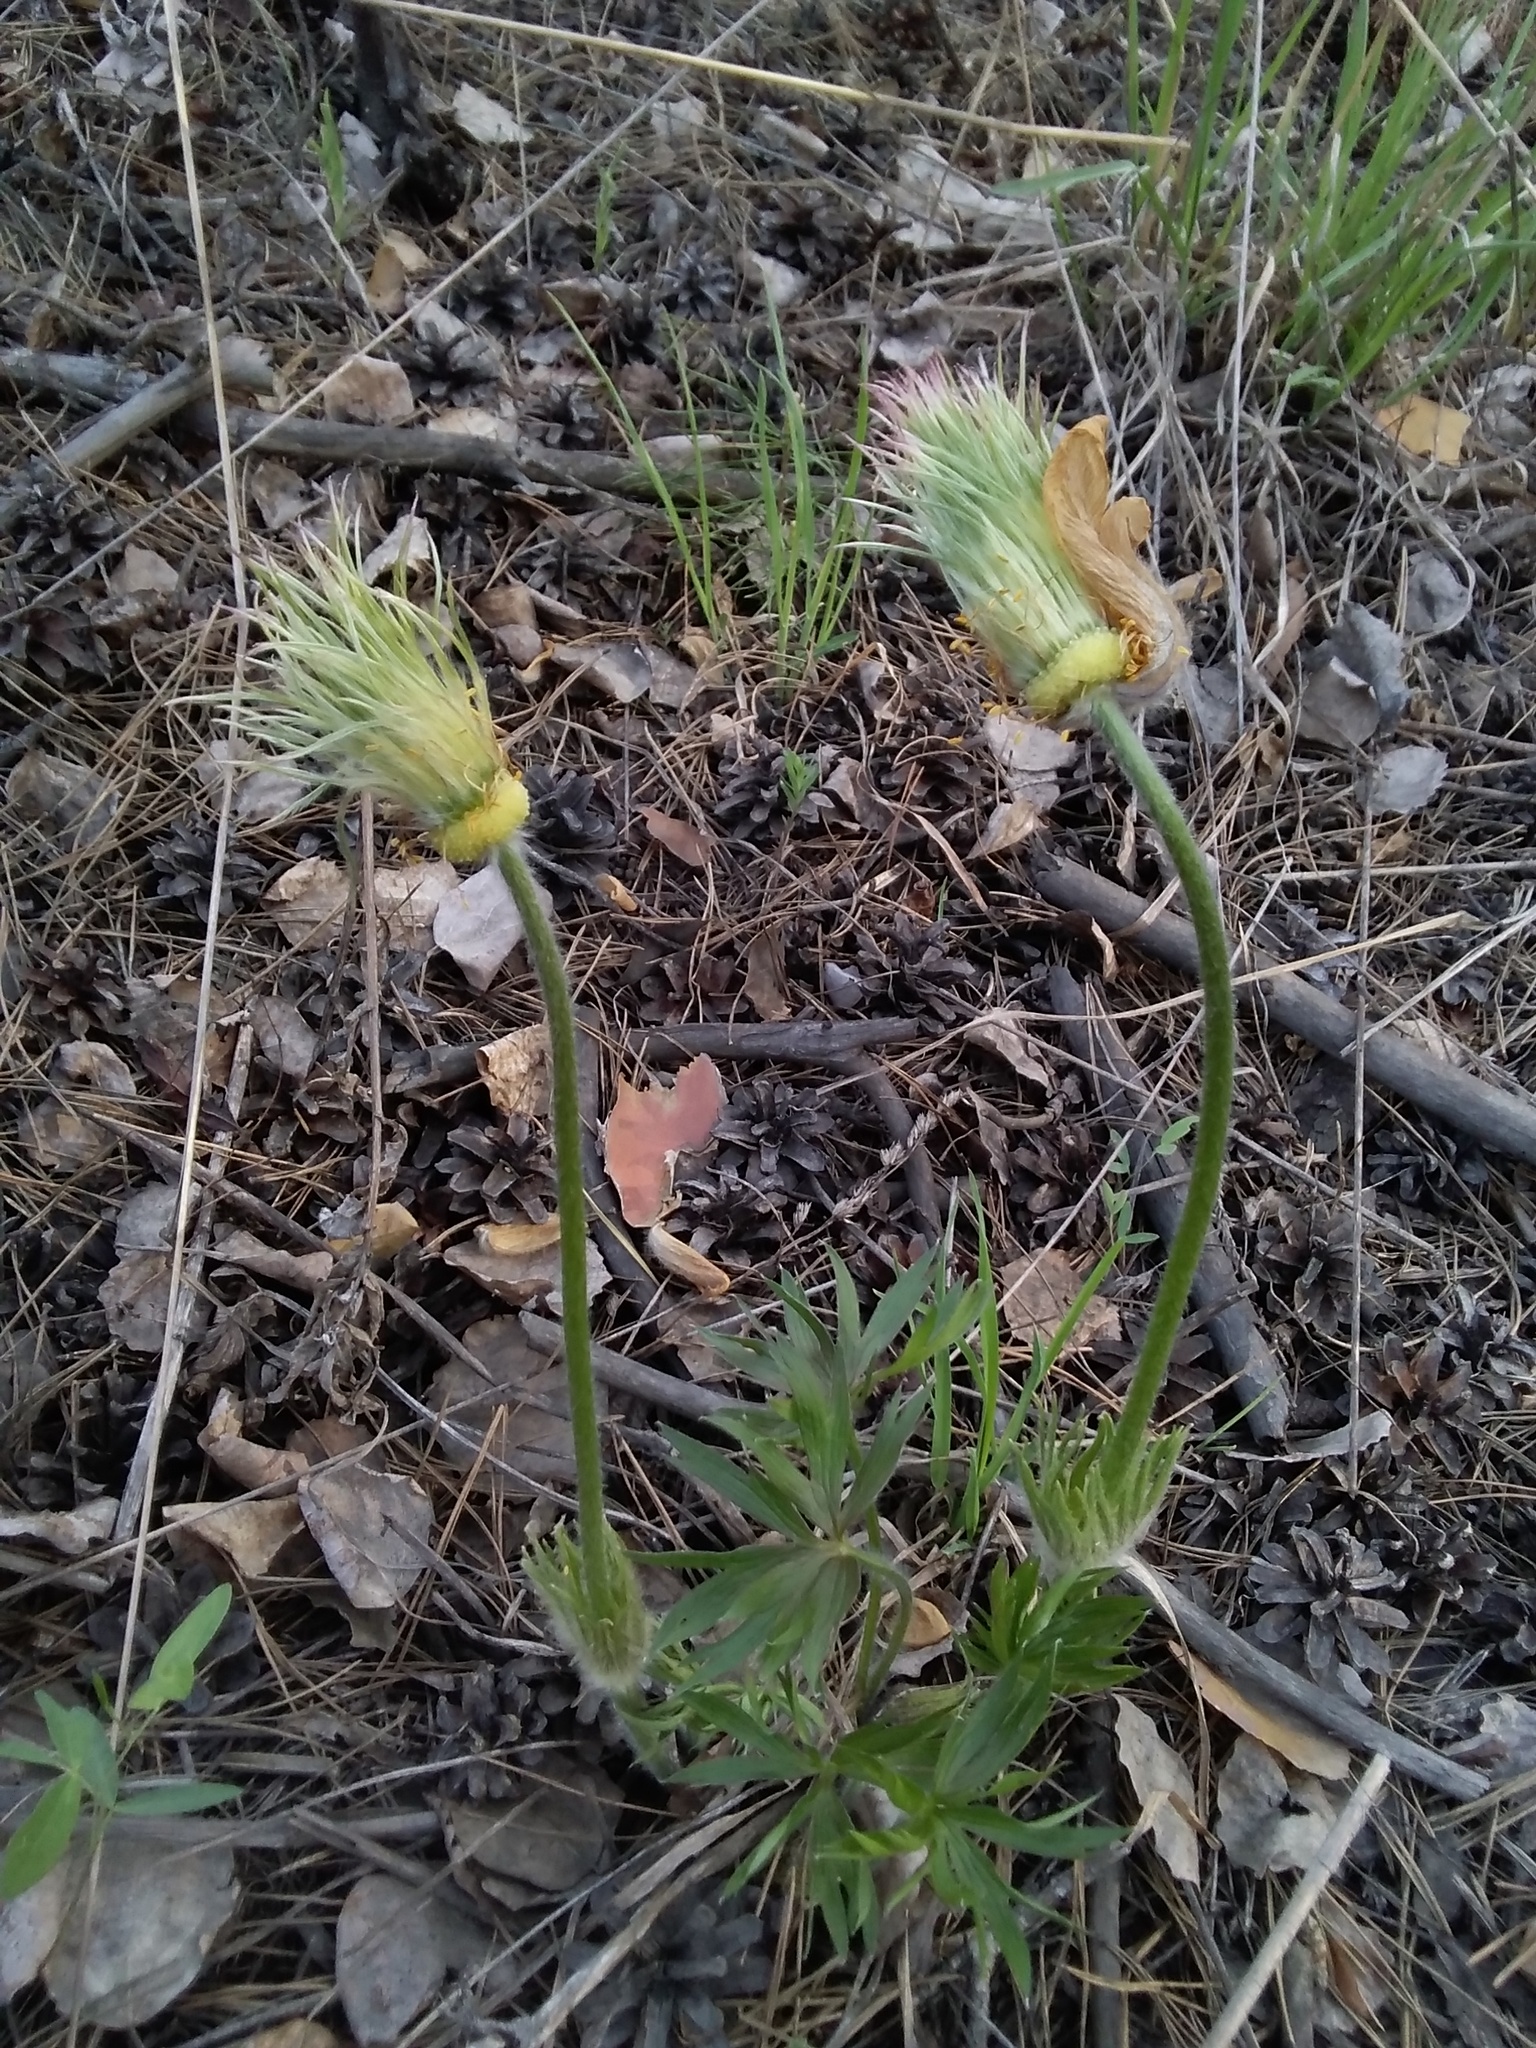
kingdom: Plantae
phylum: Tracheophyta
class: Magnoliopsida
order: Ranunculales
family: Ranunculaceae
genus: Pulsatilla
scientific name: Pulsatilla patens
